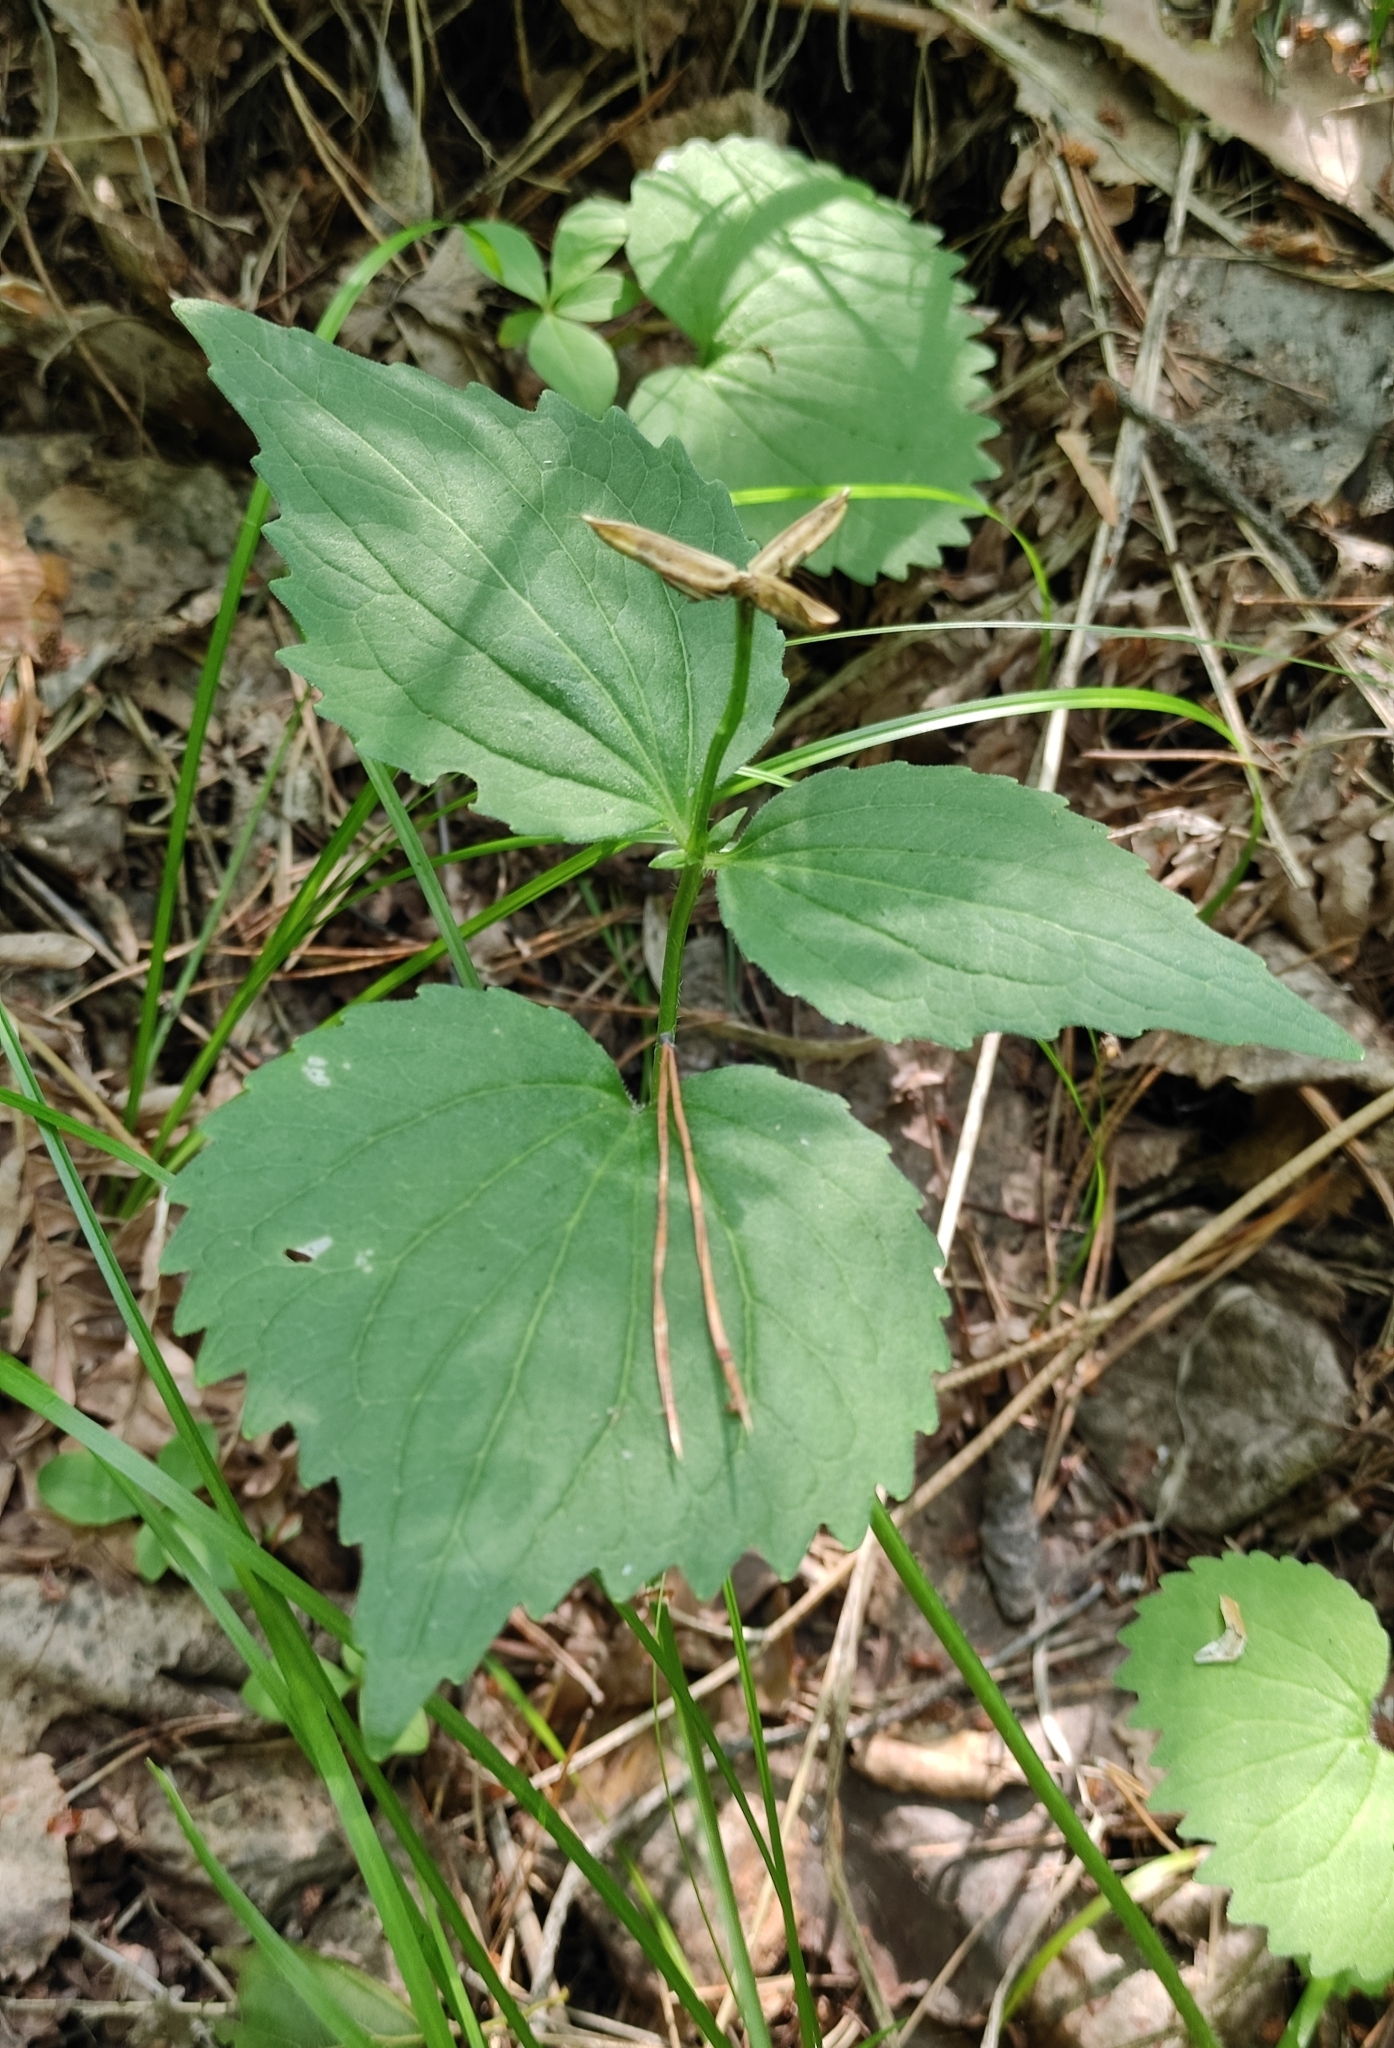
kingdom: Plantae
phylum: Tracheophyta
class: Magnoliopsida
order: Malpighiales
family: Violaceae
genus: Viola
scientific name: Viola uniflora
